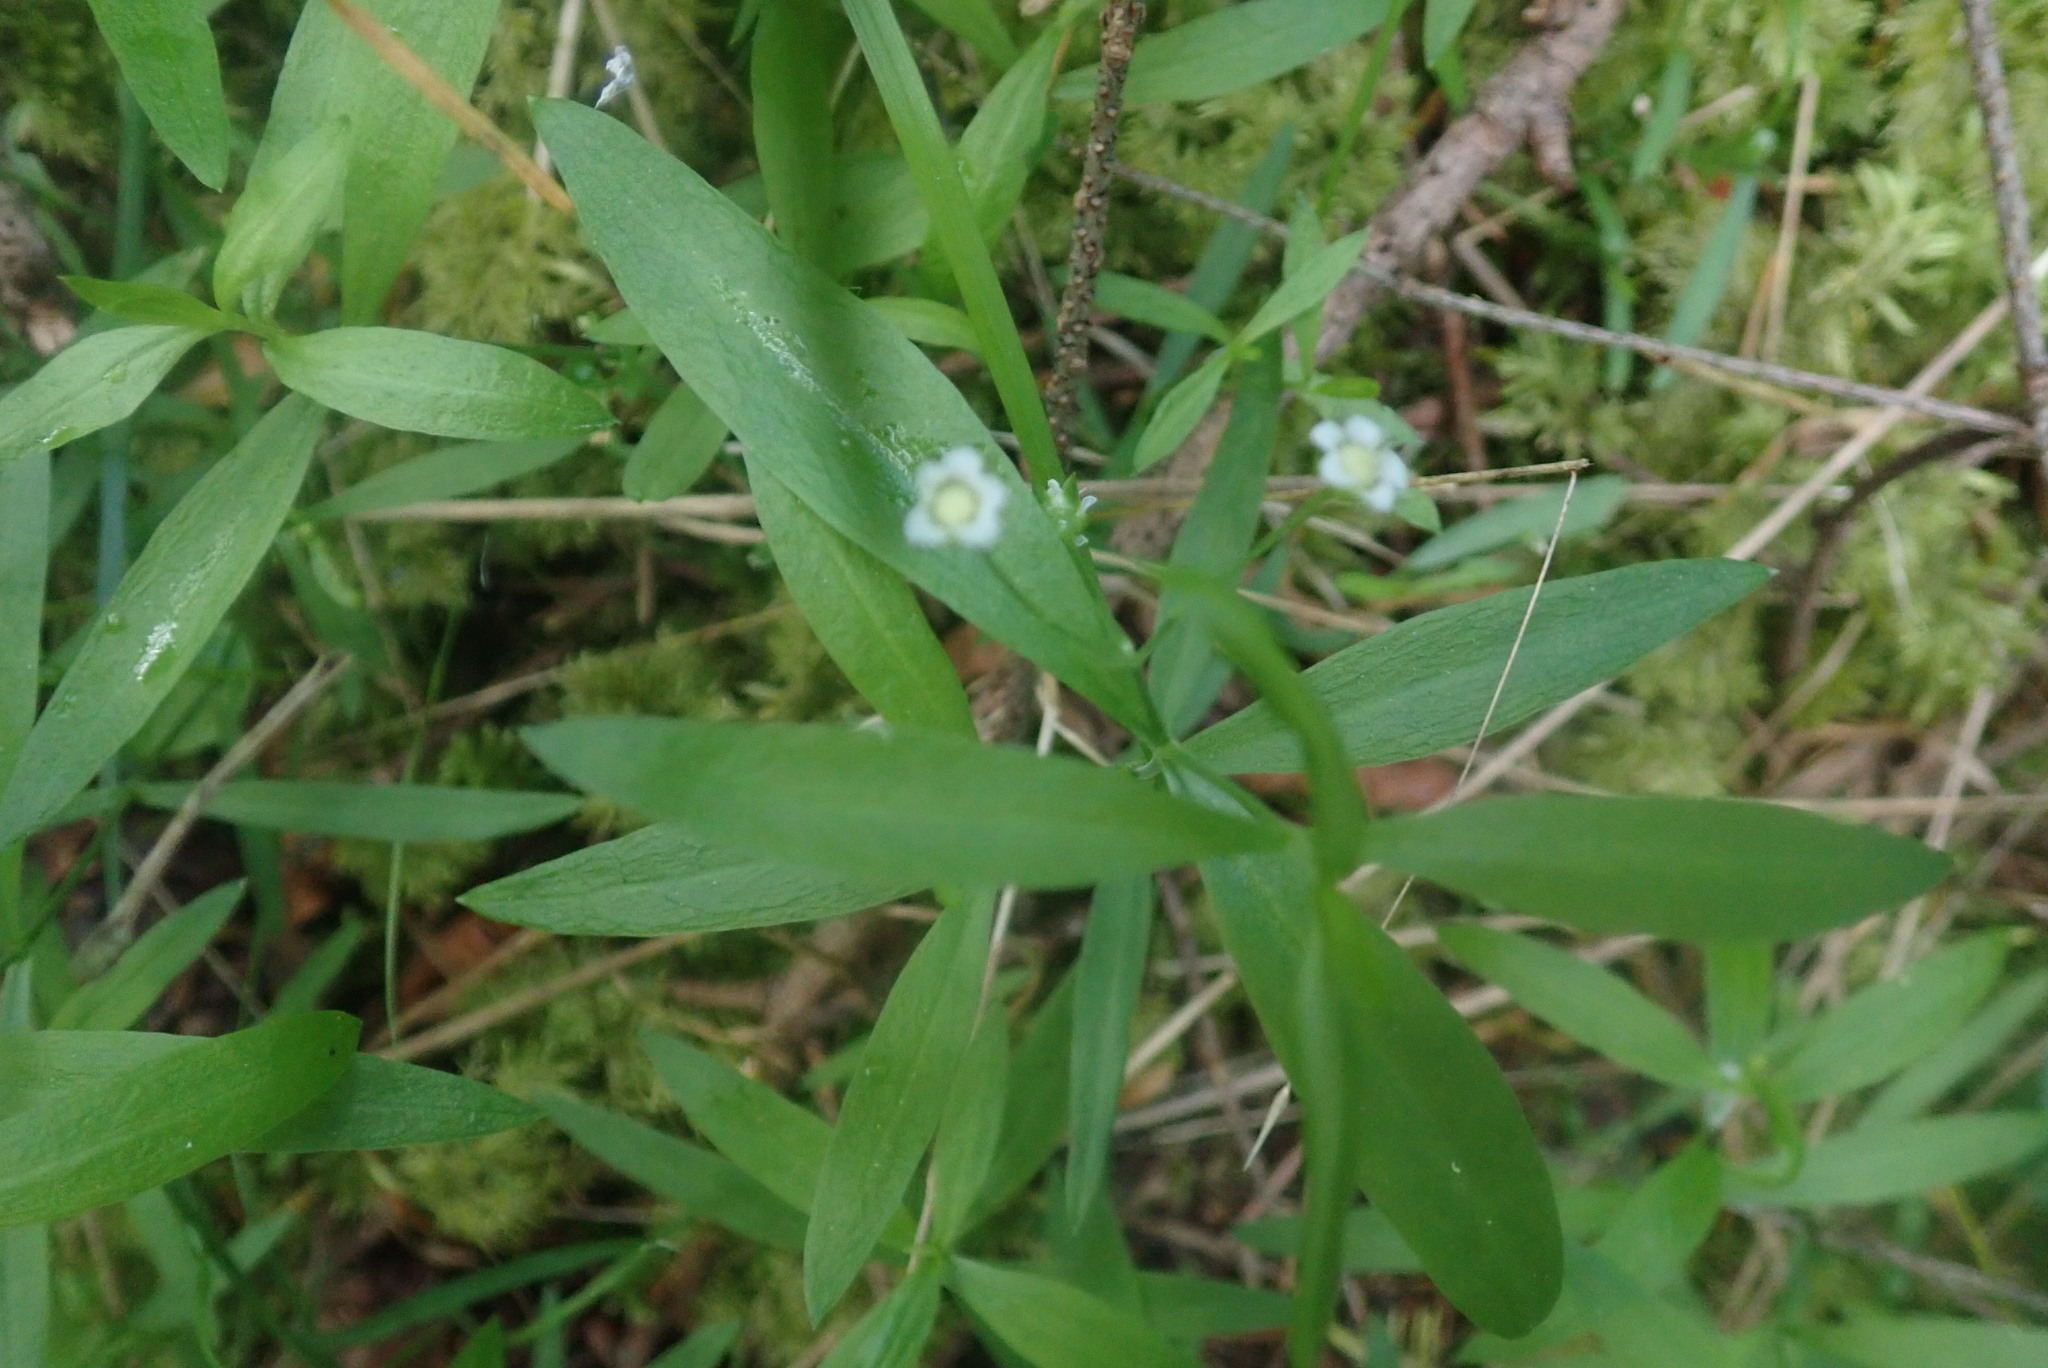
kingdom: Plantae
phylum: Tracheophyta
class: Magnoliopsida
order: Caryophyllales
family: Caryophyllaceae
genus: Moehringia
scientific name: Moehringia macrophylla
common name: Big-leaf sandwort
